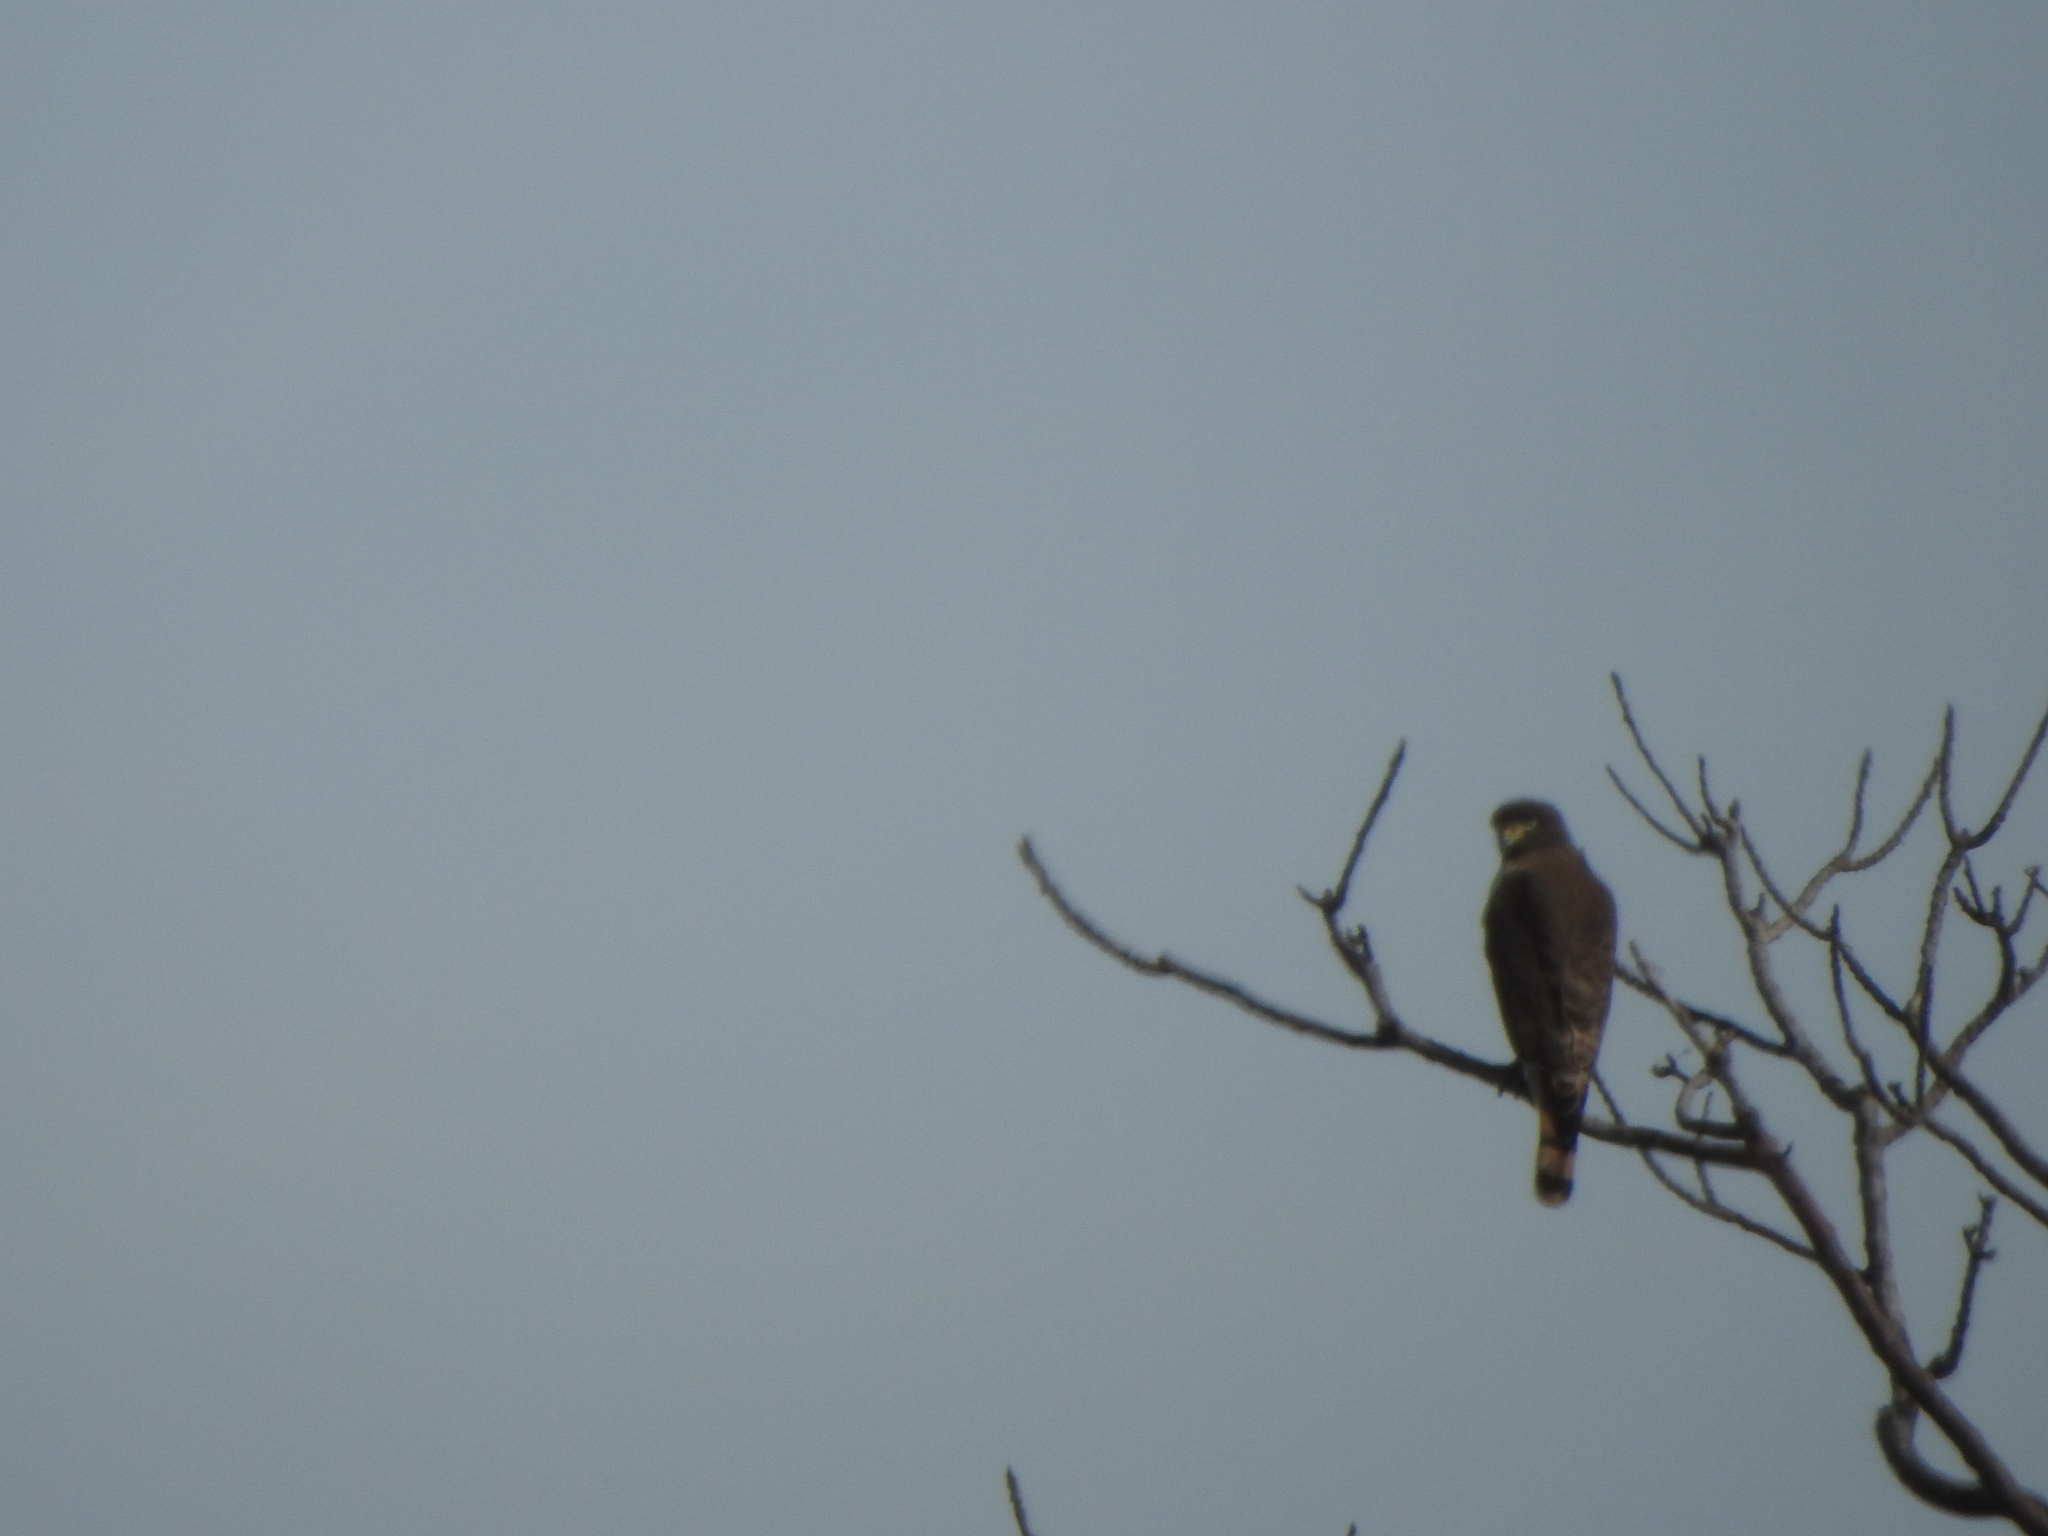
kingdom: Animalia
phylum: Chordata
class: Aves
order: Accipitriformes
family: Accipitridae
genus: Rupornis
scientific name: Rupornis magnirostris
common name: Roadside hawk
